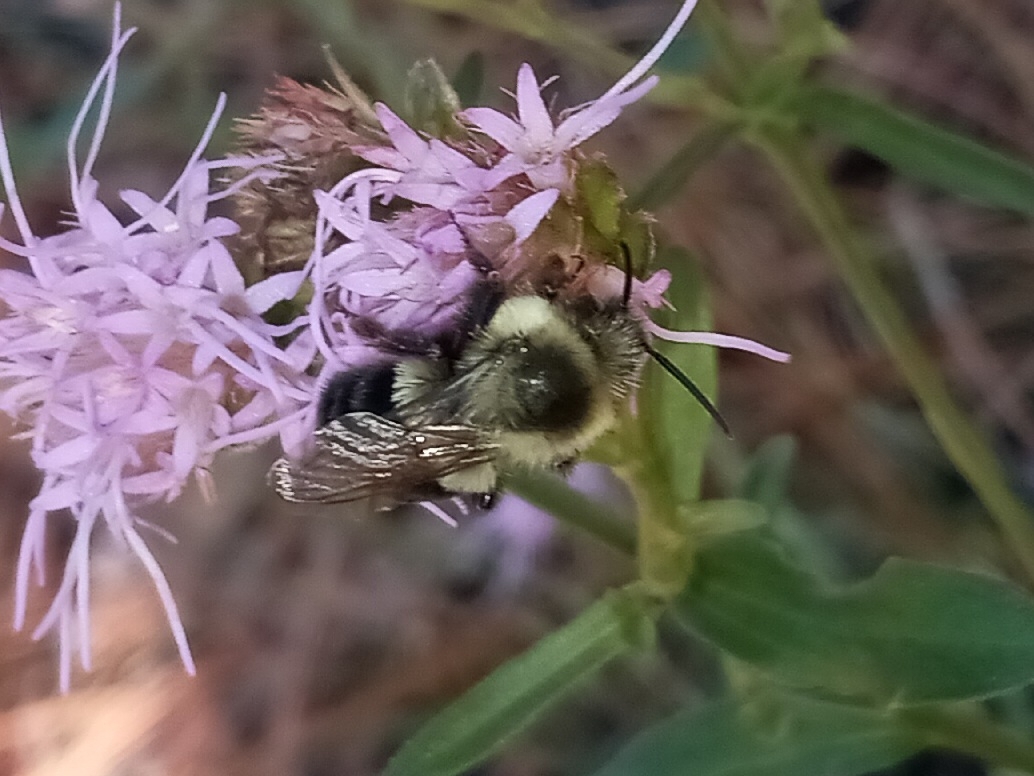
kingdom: Animalia
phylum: Arthropoda
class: Insecta
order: Hymenoptera
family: Apidae
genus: Bombus
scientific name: Bombus impatiens
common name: Common eastern bumble bee
